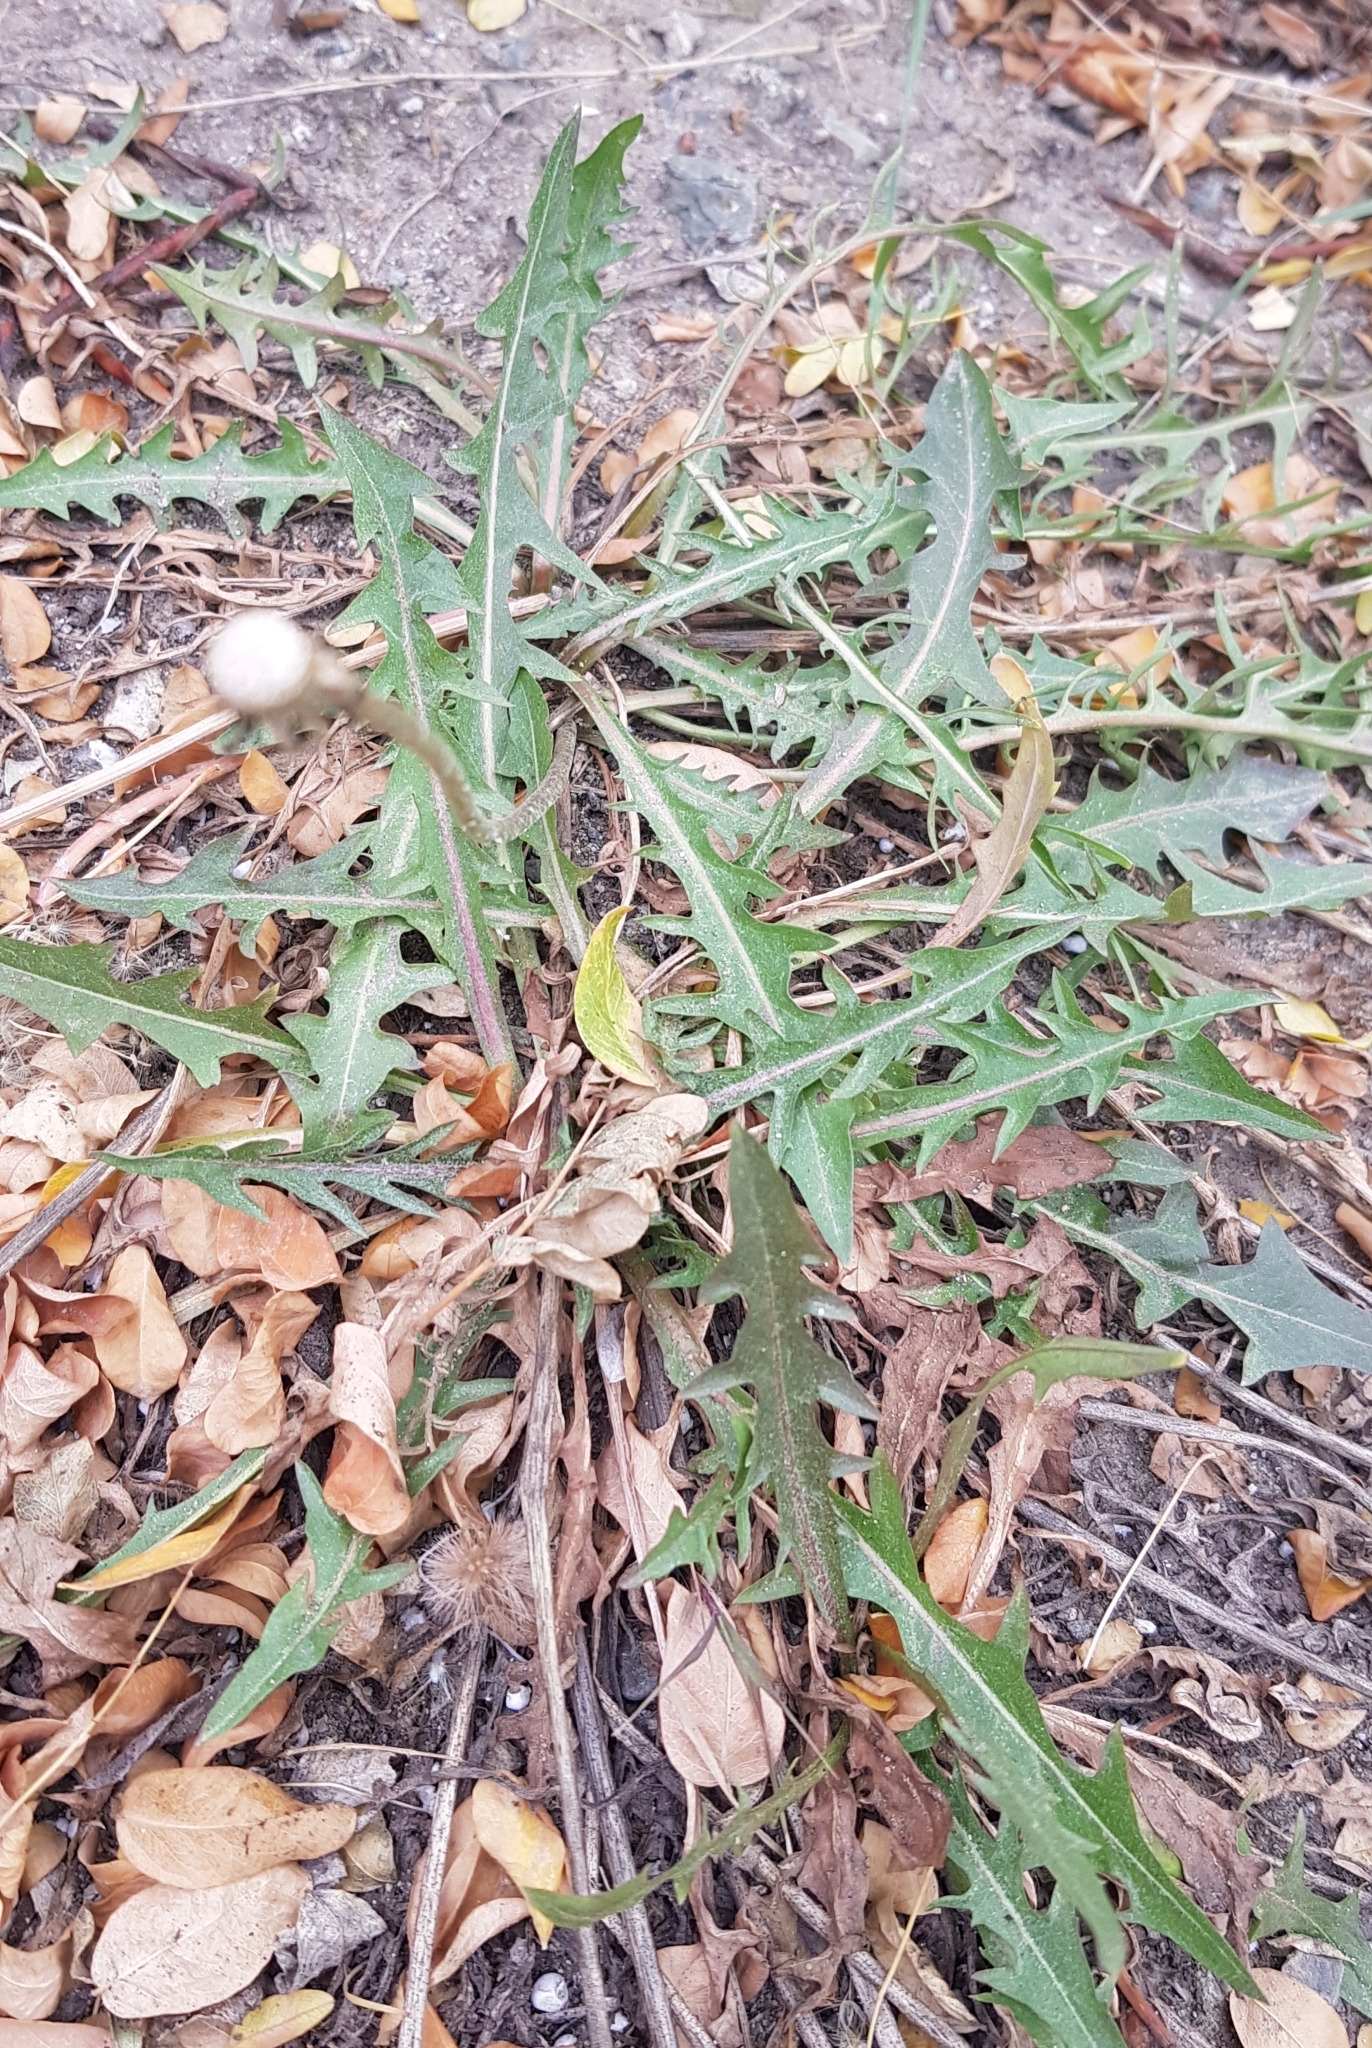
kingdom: Plantae
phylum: Tracheophyta
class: Magnoliopsida
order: Asterales
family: Asteraceae
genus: Taraxacum
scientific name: Taraxacum officinale
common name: Common dandelion
